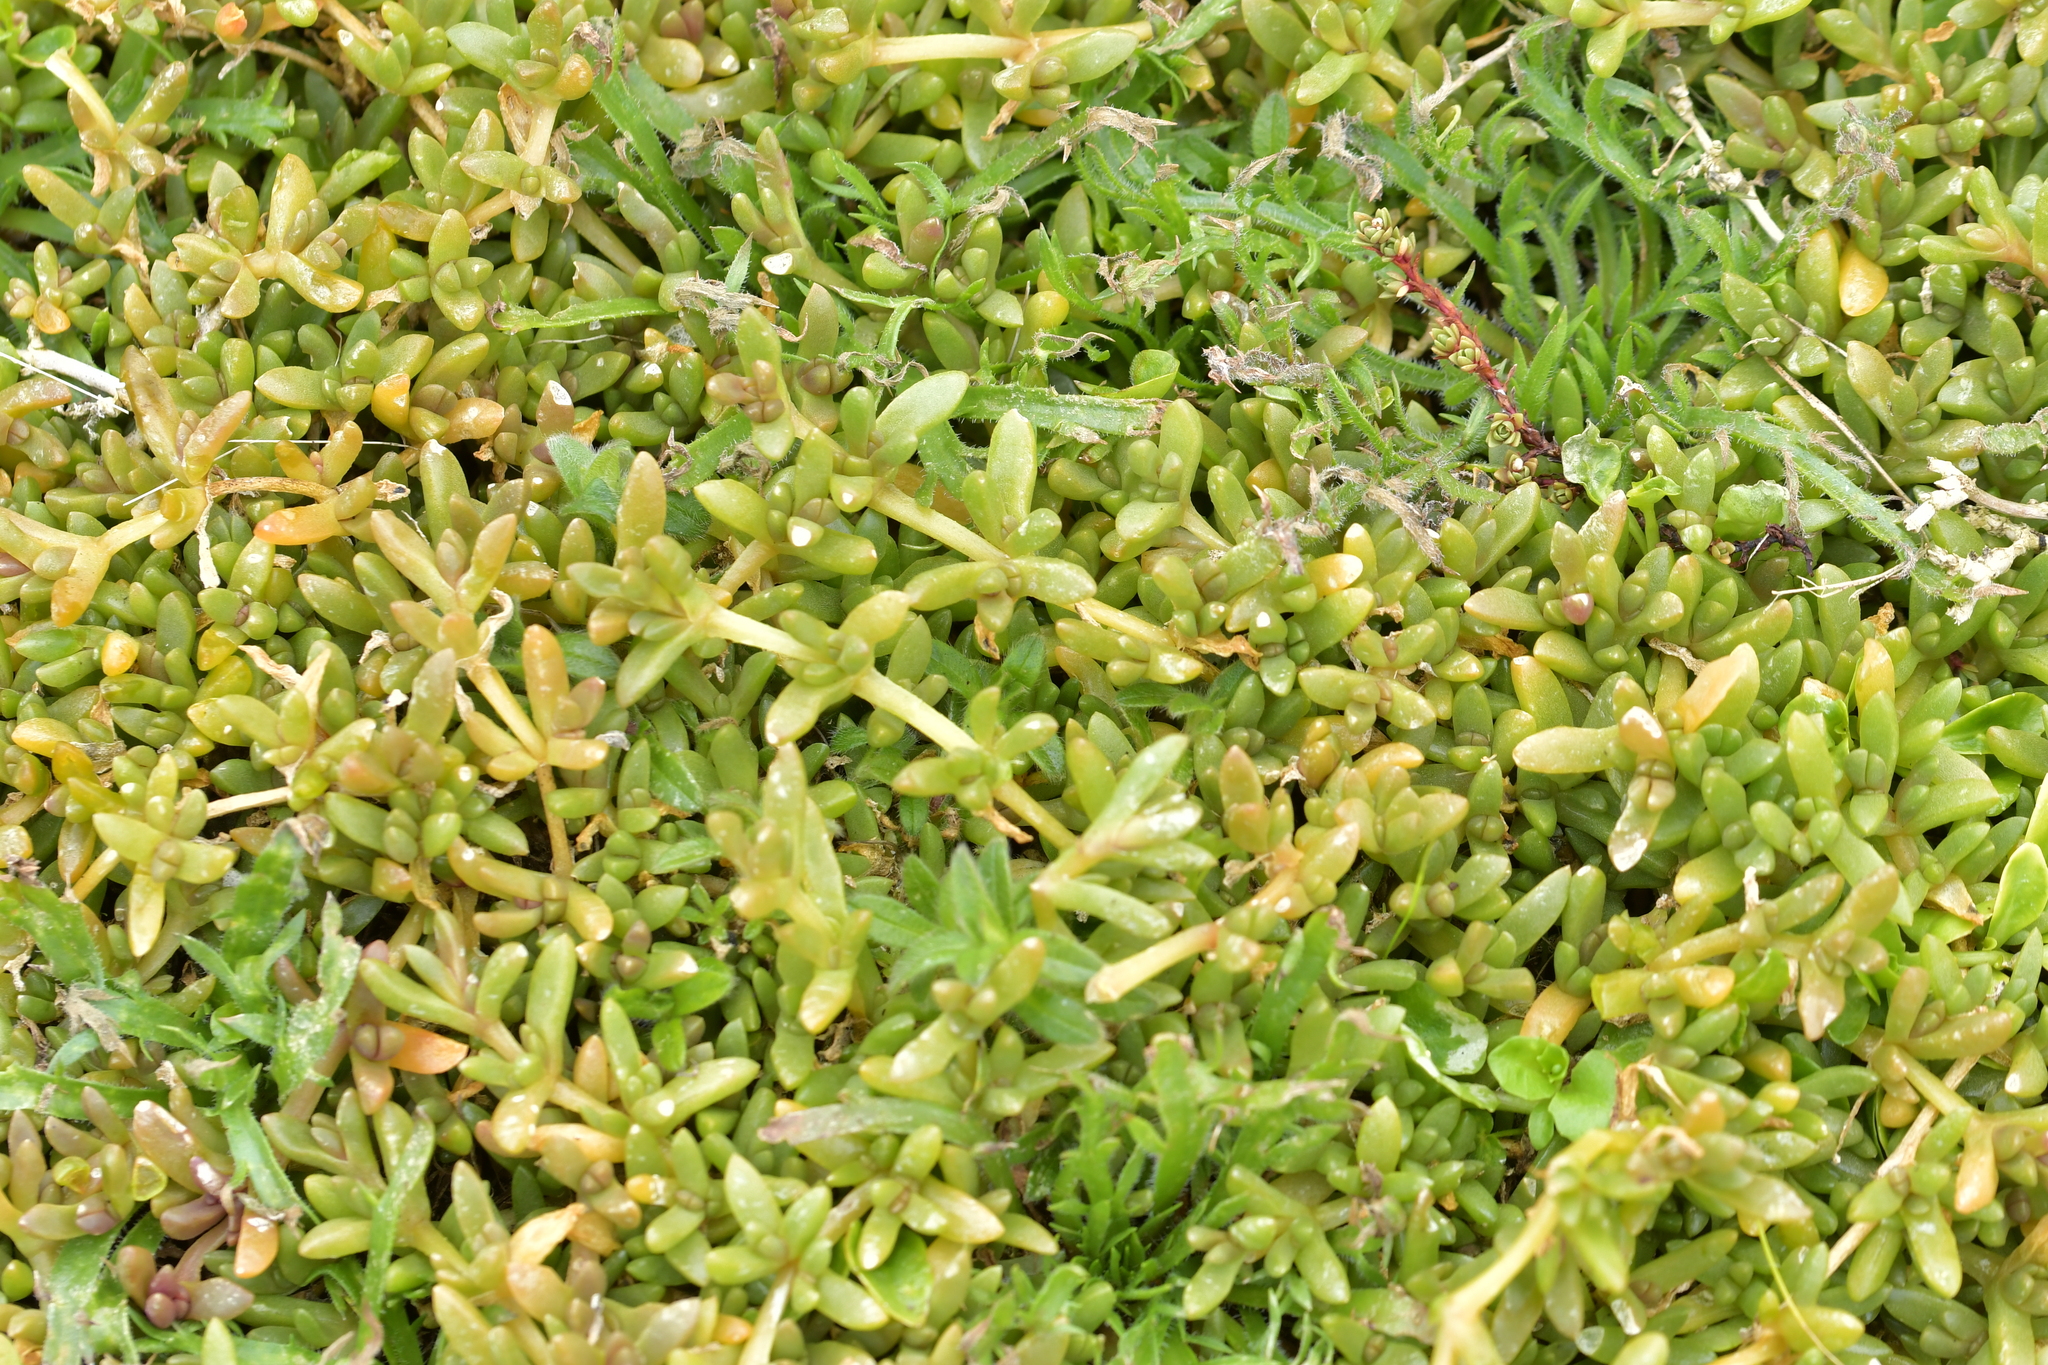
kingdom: Plantae
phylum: Tracheophyta
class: Magnoliopsida
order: Caryophyllales
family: Aizoaceae
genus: Disphyma
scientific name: Disphyma papillatum
